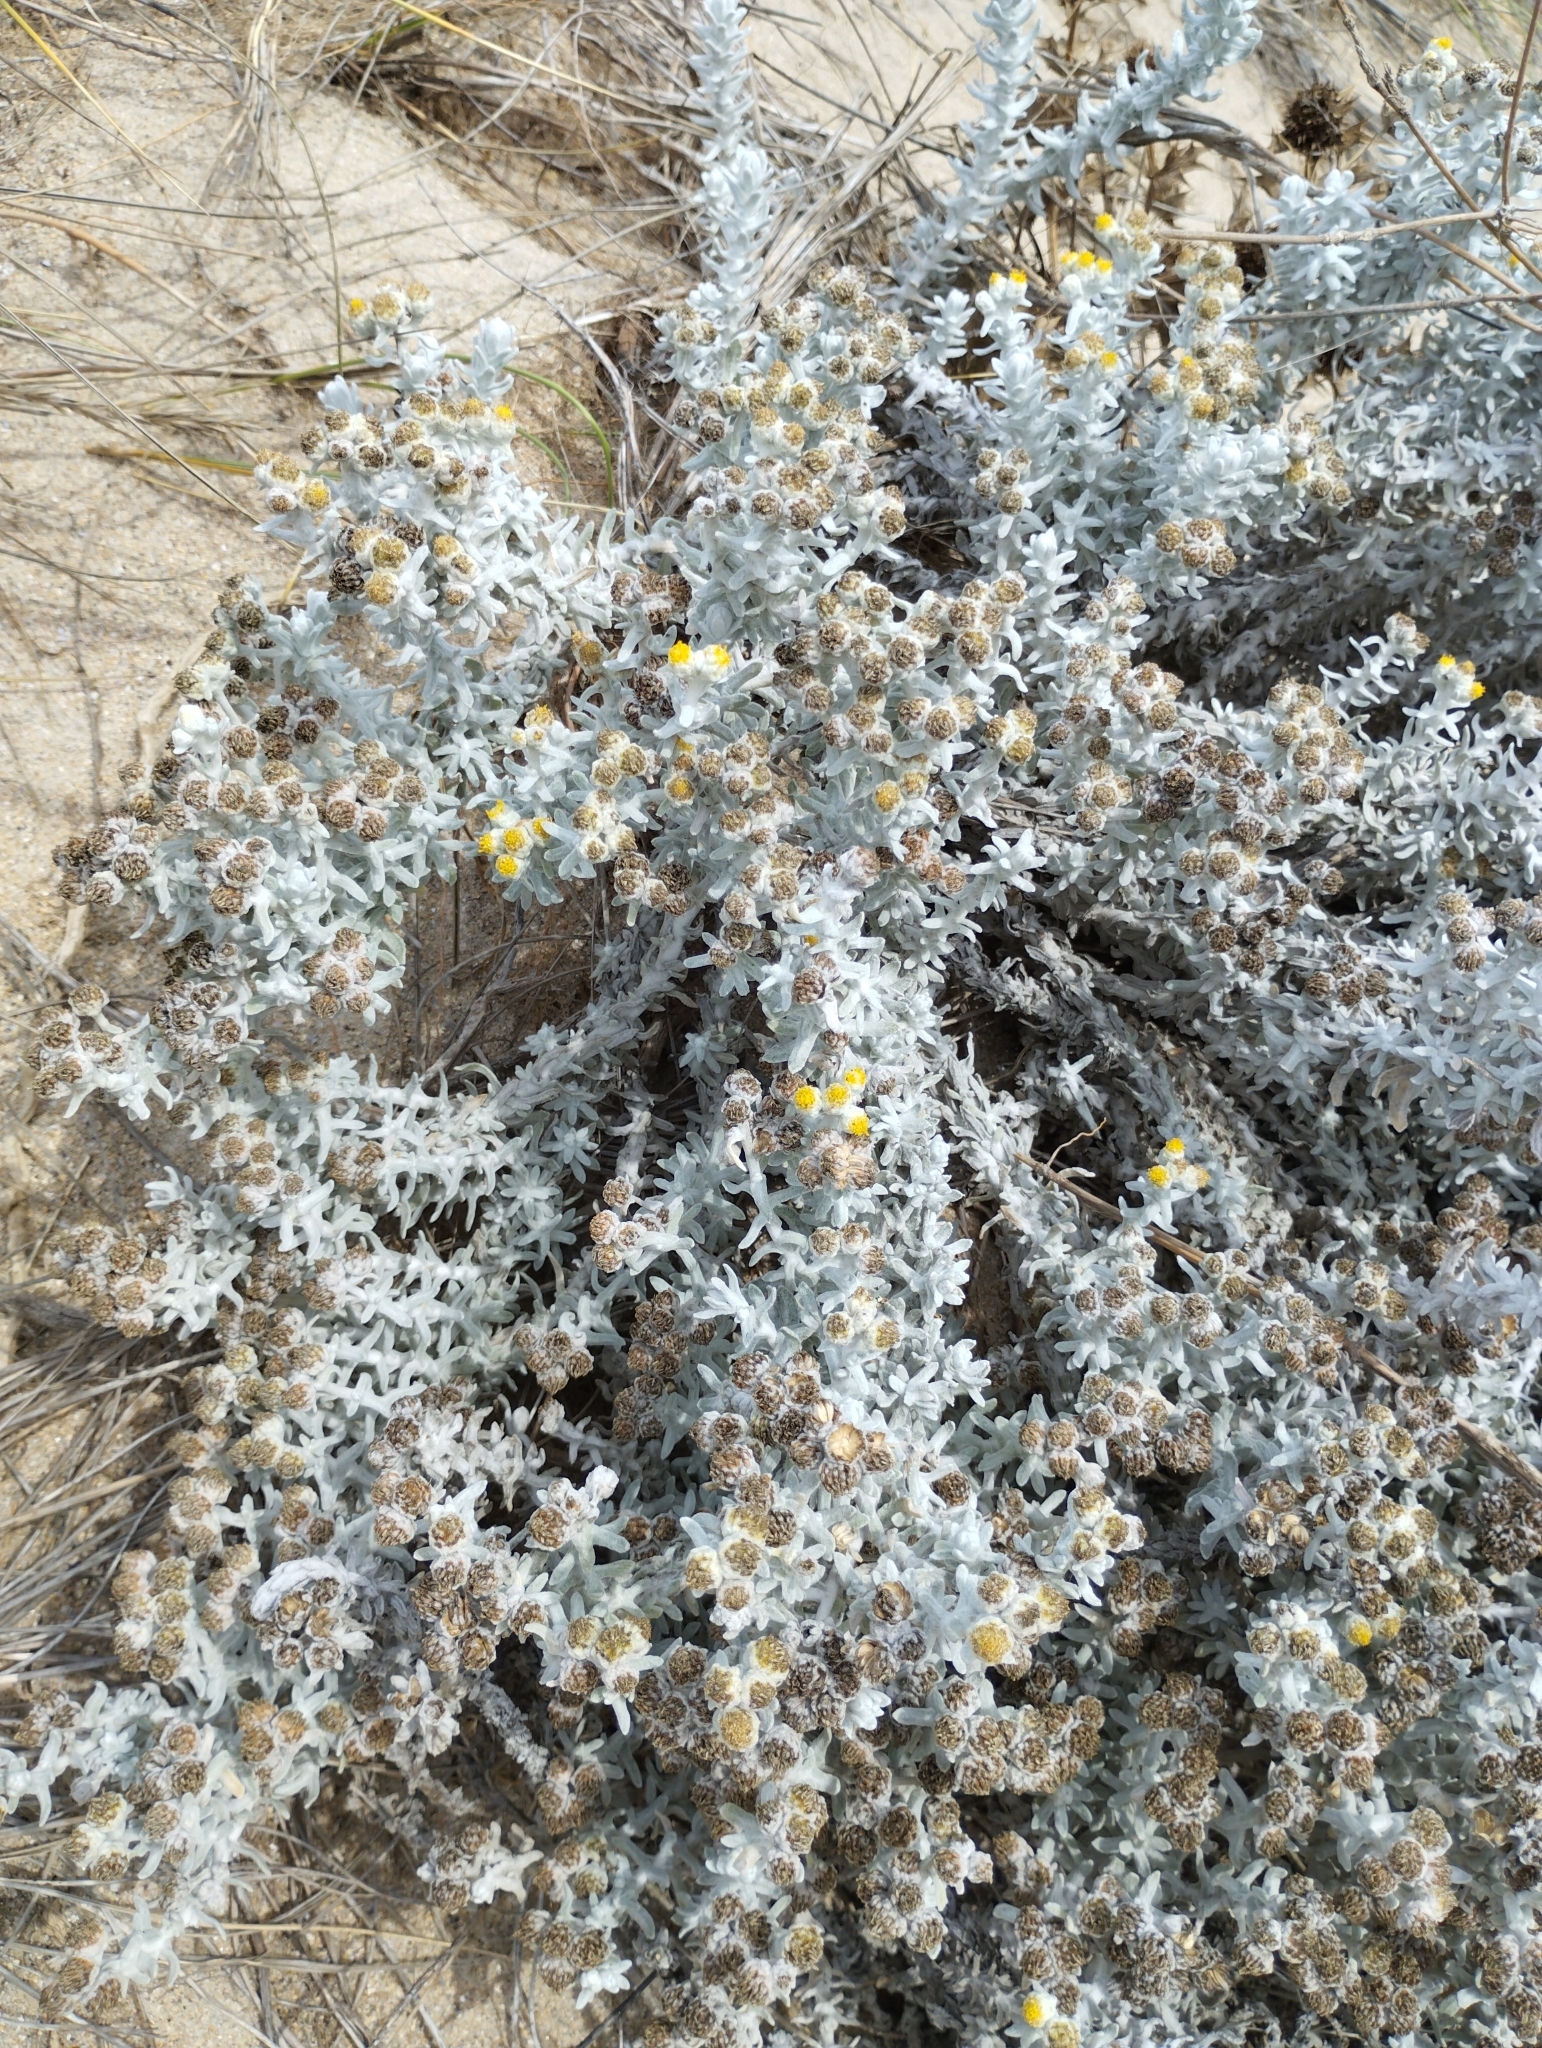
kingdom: Plantae
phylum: Tracheophyta
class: Magnoliopsida
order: Asterales
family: Asteraceae
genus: Achillea
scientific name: Achillea maritima
